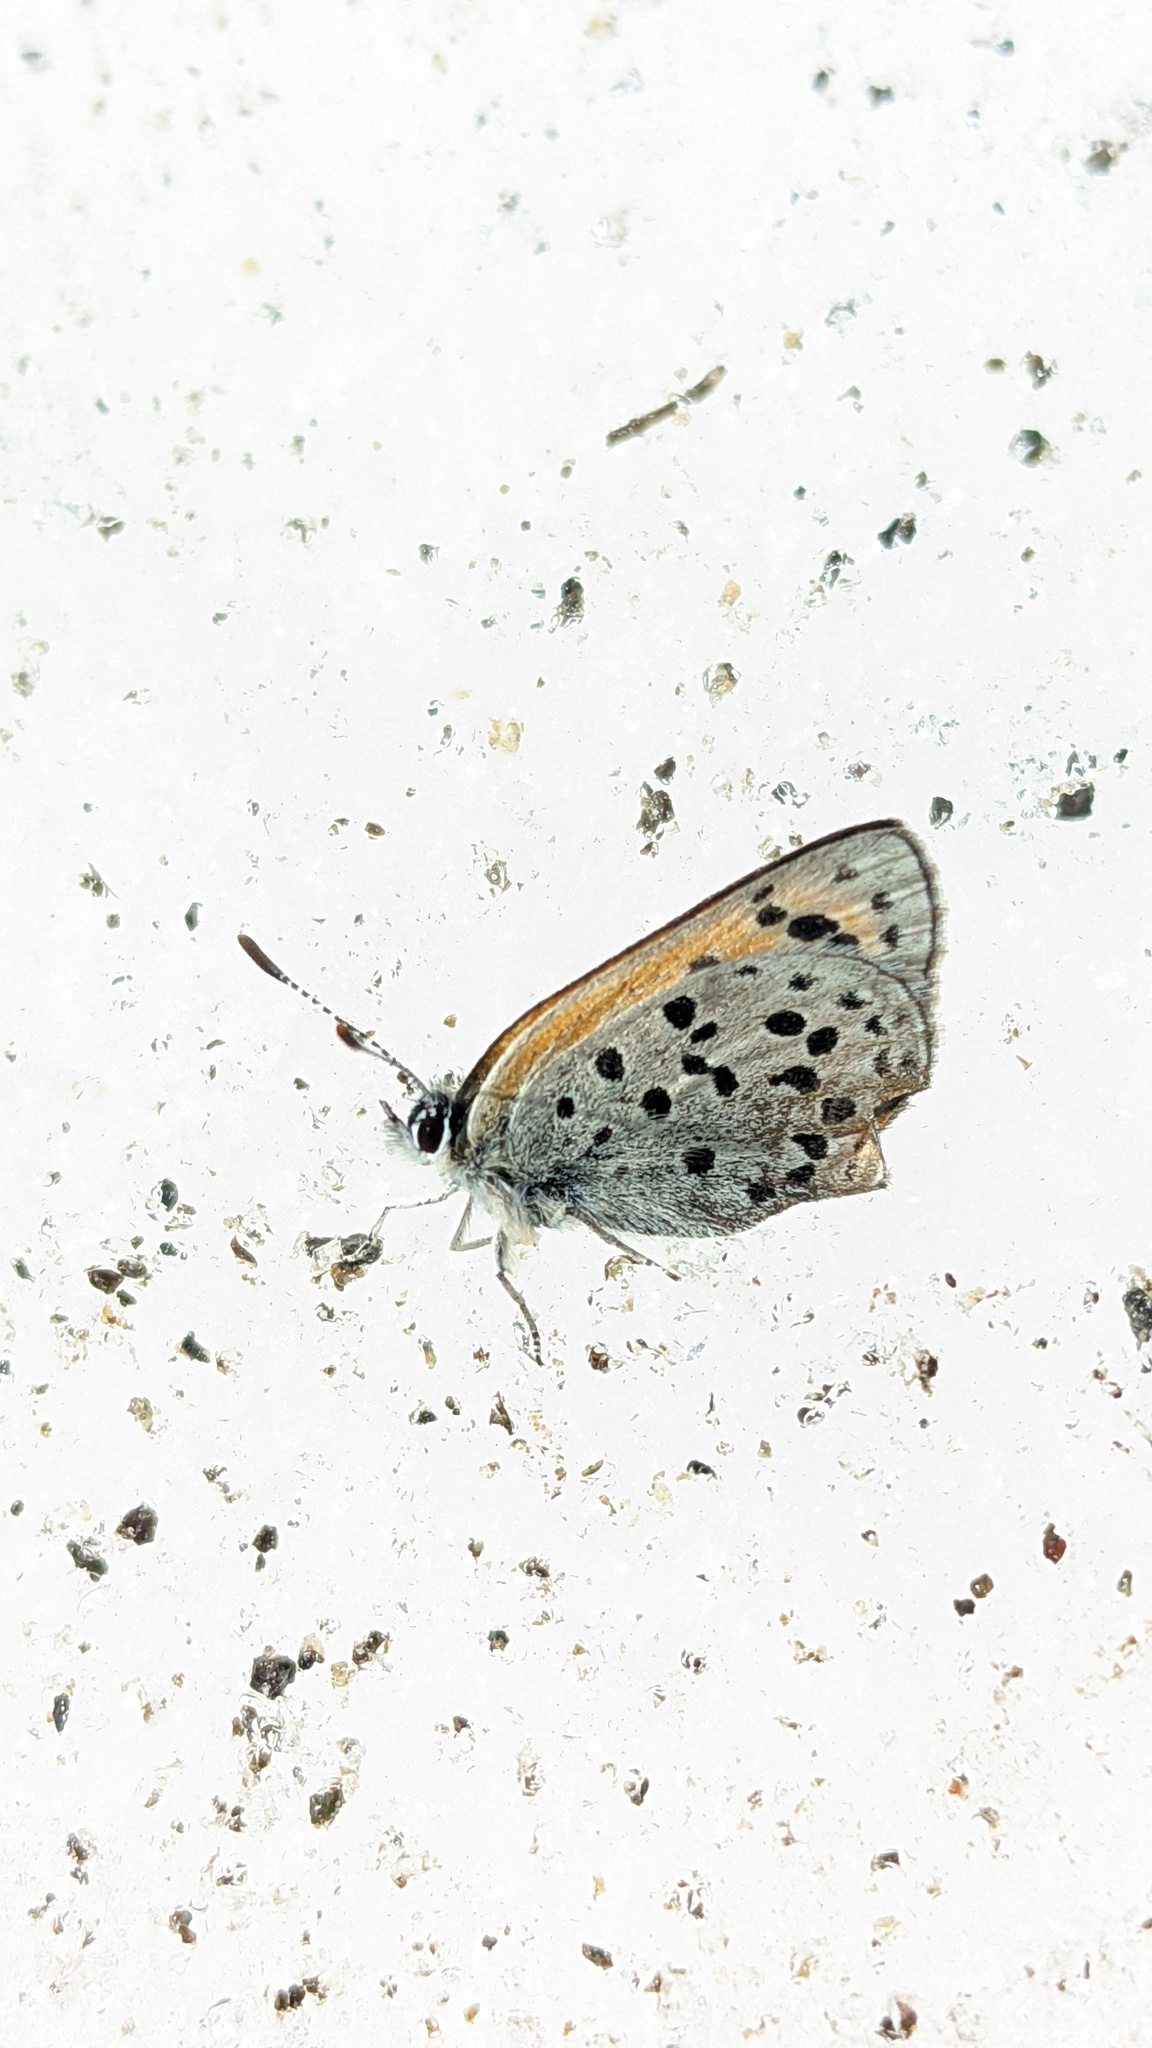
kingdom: Animalia
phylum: Arthropoda
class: Insecta
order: Lepidoptera
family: Lycaenidae
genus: Lycaena
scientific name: Lycaena cupreus
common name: Lustrous copper
